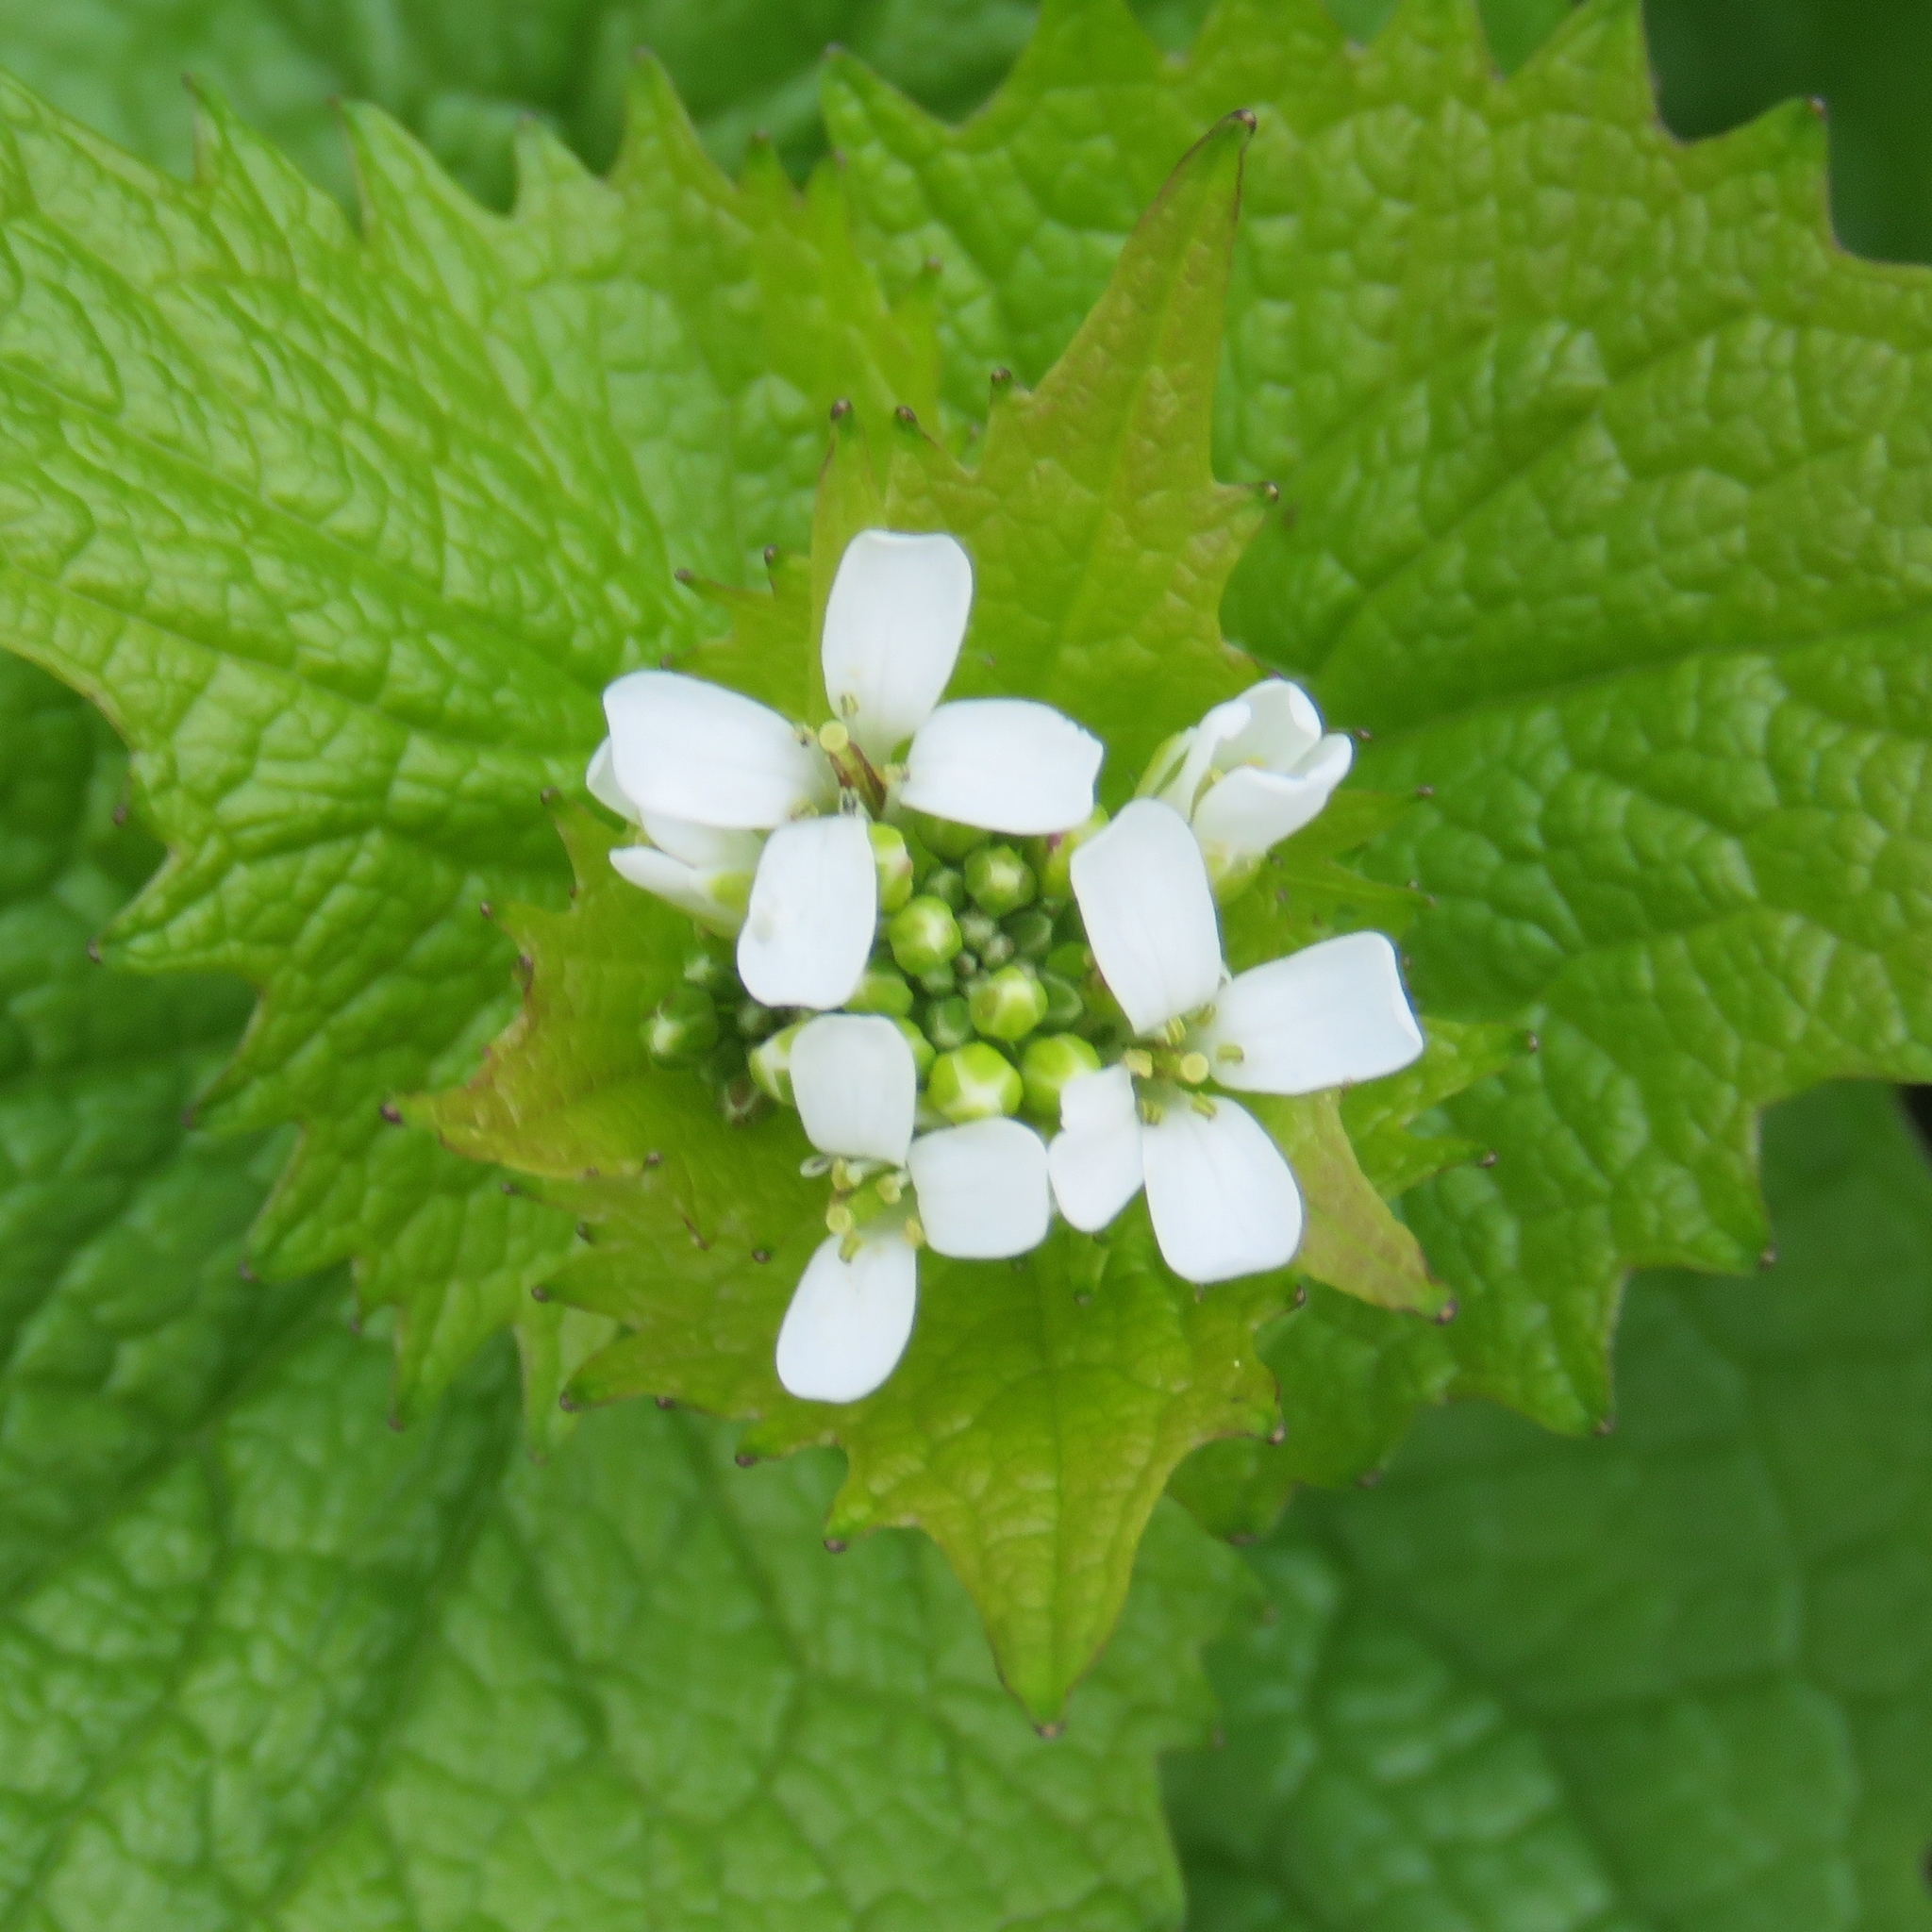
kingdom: Plantae
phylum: Tracheophyta
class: Magnoliopsida
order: Brassicales
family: Brassicaceae
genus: Alliaria
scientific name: Alliaria petiolata
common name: Garlic mustard
